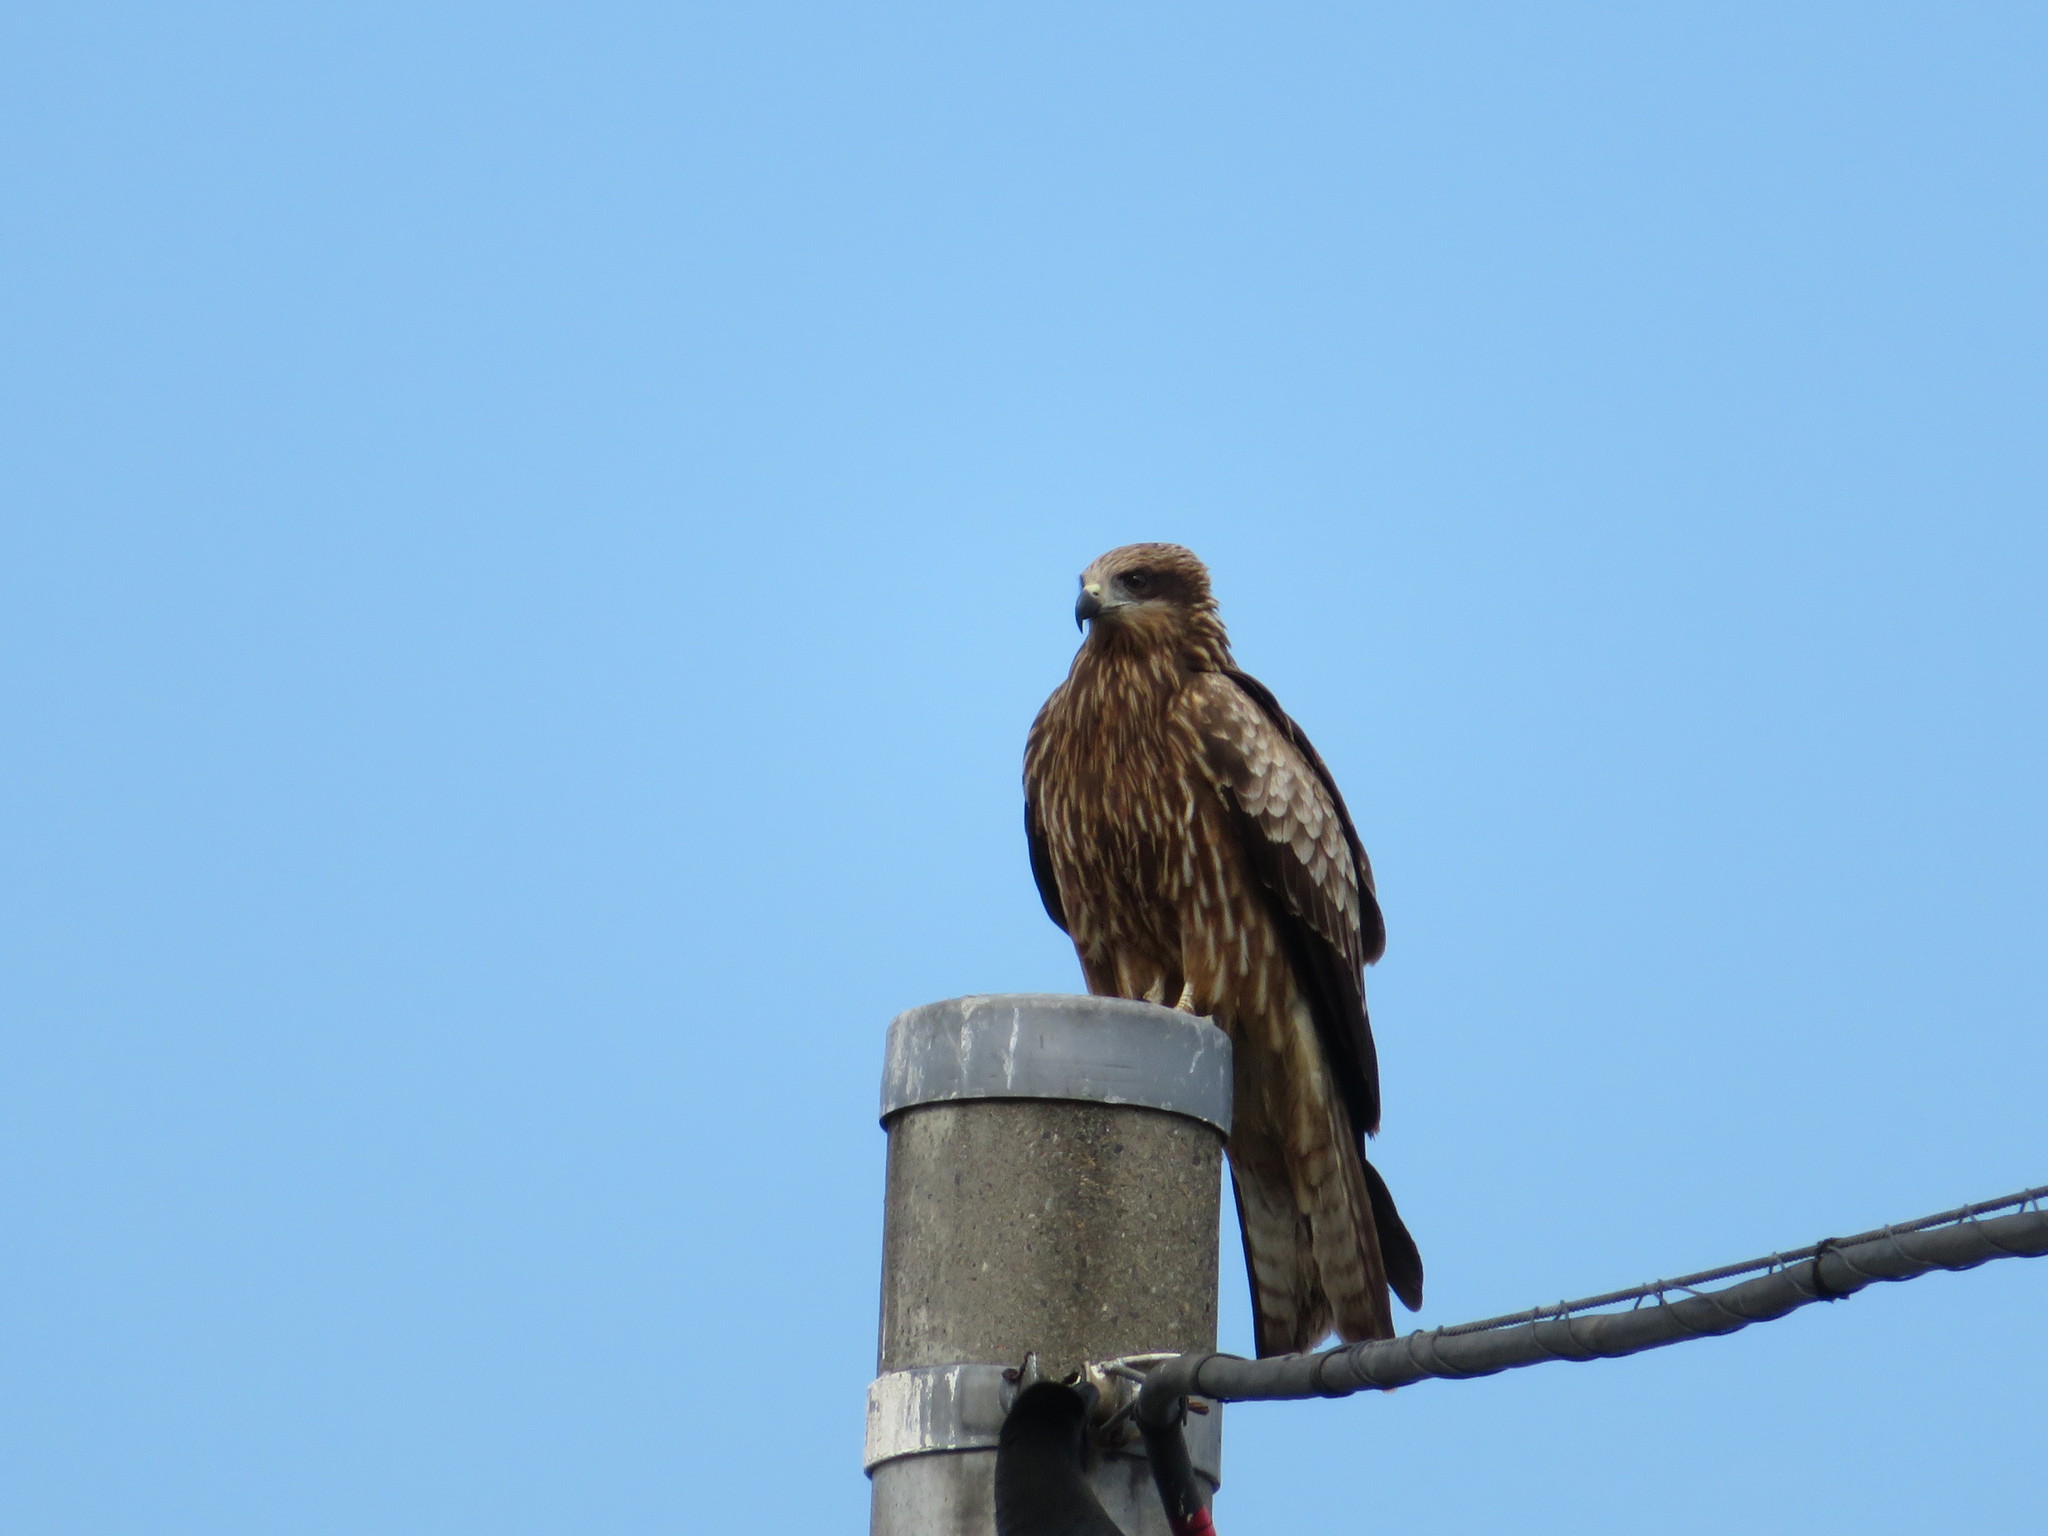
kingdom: Animalia
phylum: Chordata
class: Aves
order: Accipitriformes
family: Accipitridae
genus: Milvus
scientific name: Milvus migrans
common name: Black kite
